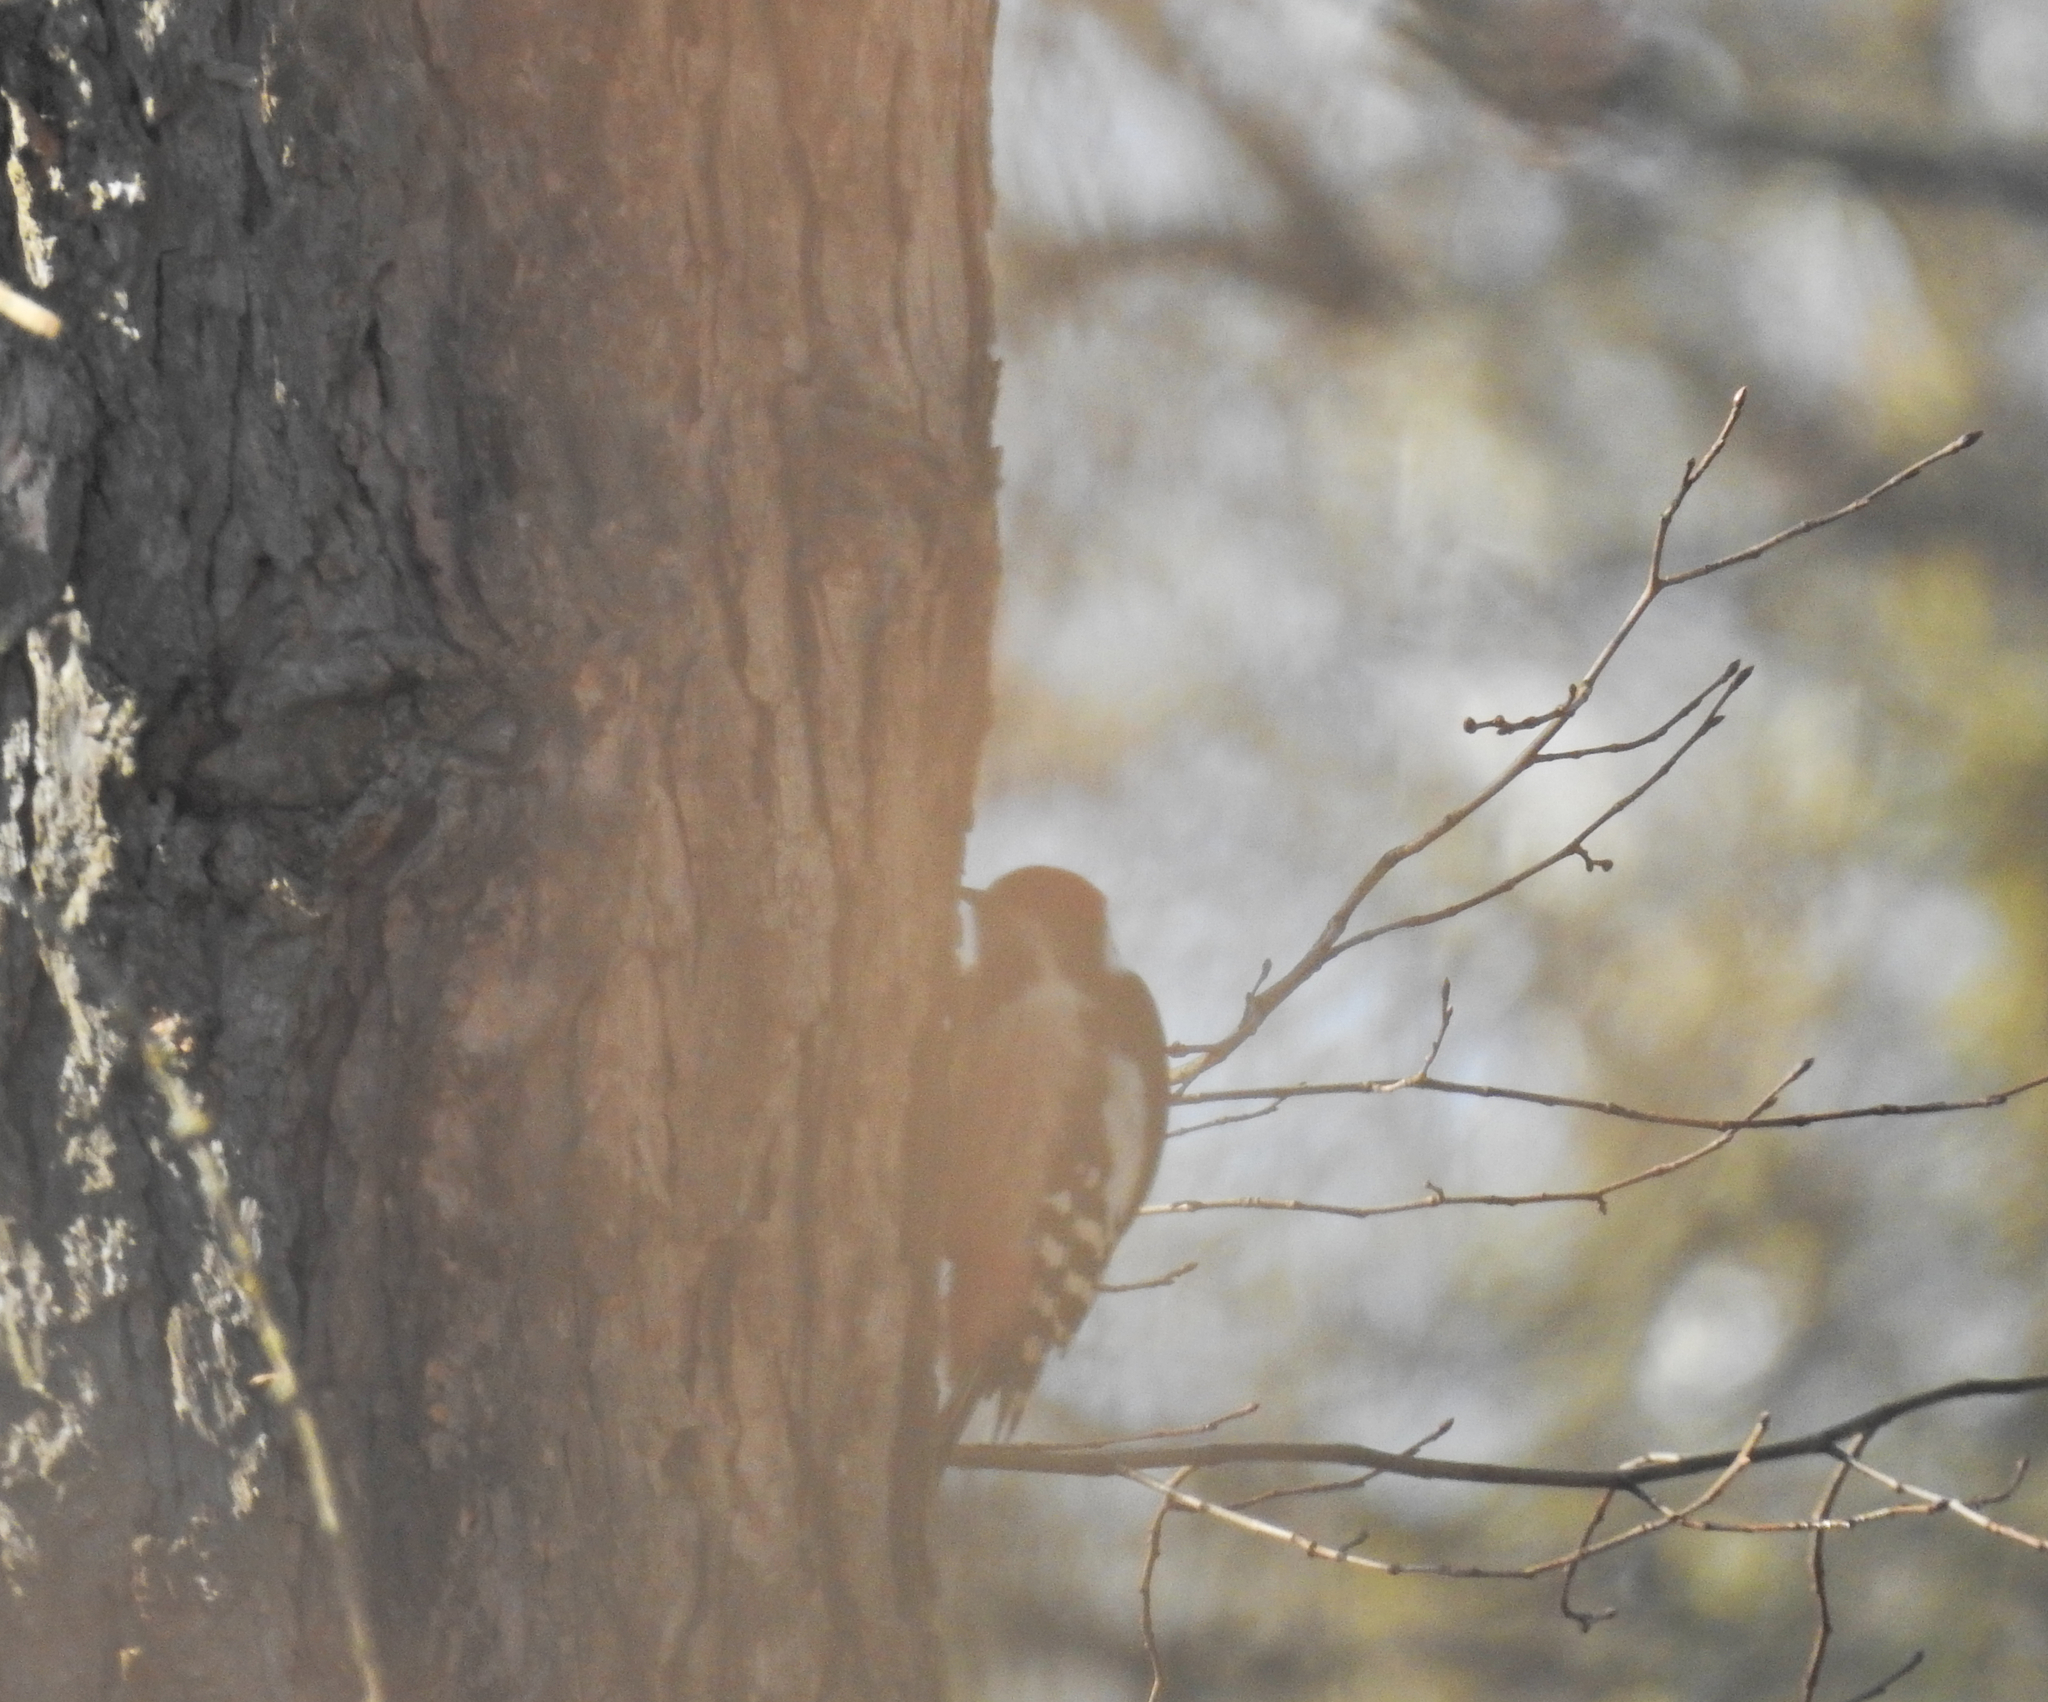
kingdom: Animalia
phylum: Chordata
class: Aves
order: Piciformes
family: Picidae
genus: Dendrocoptes
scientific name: Dendrocoptes medius
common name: Middle spotted woodpecker
